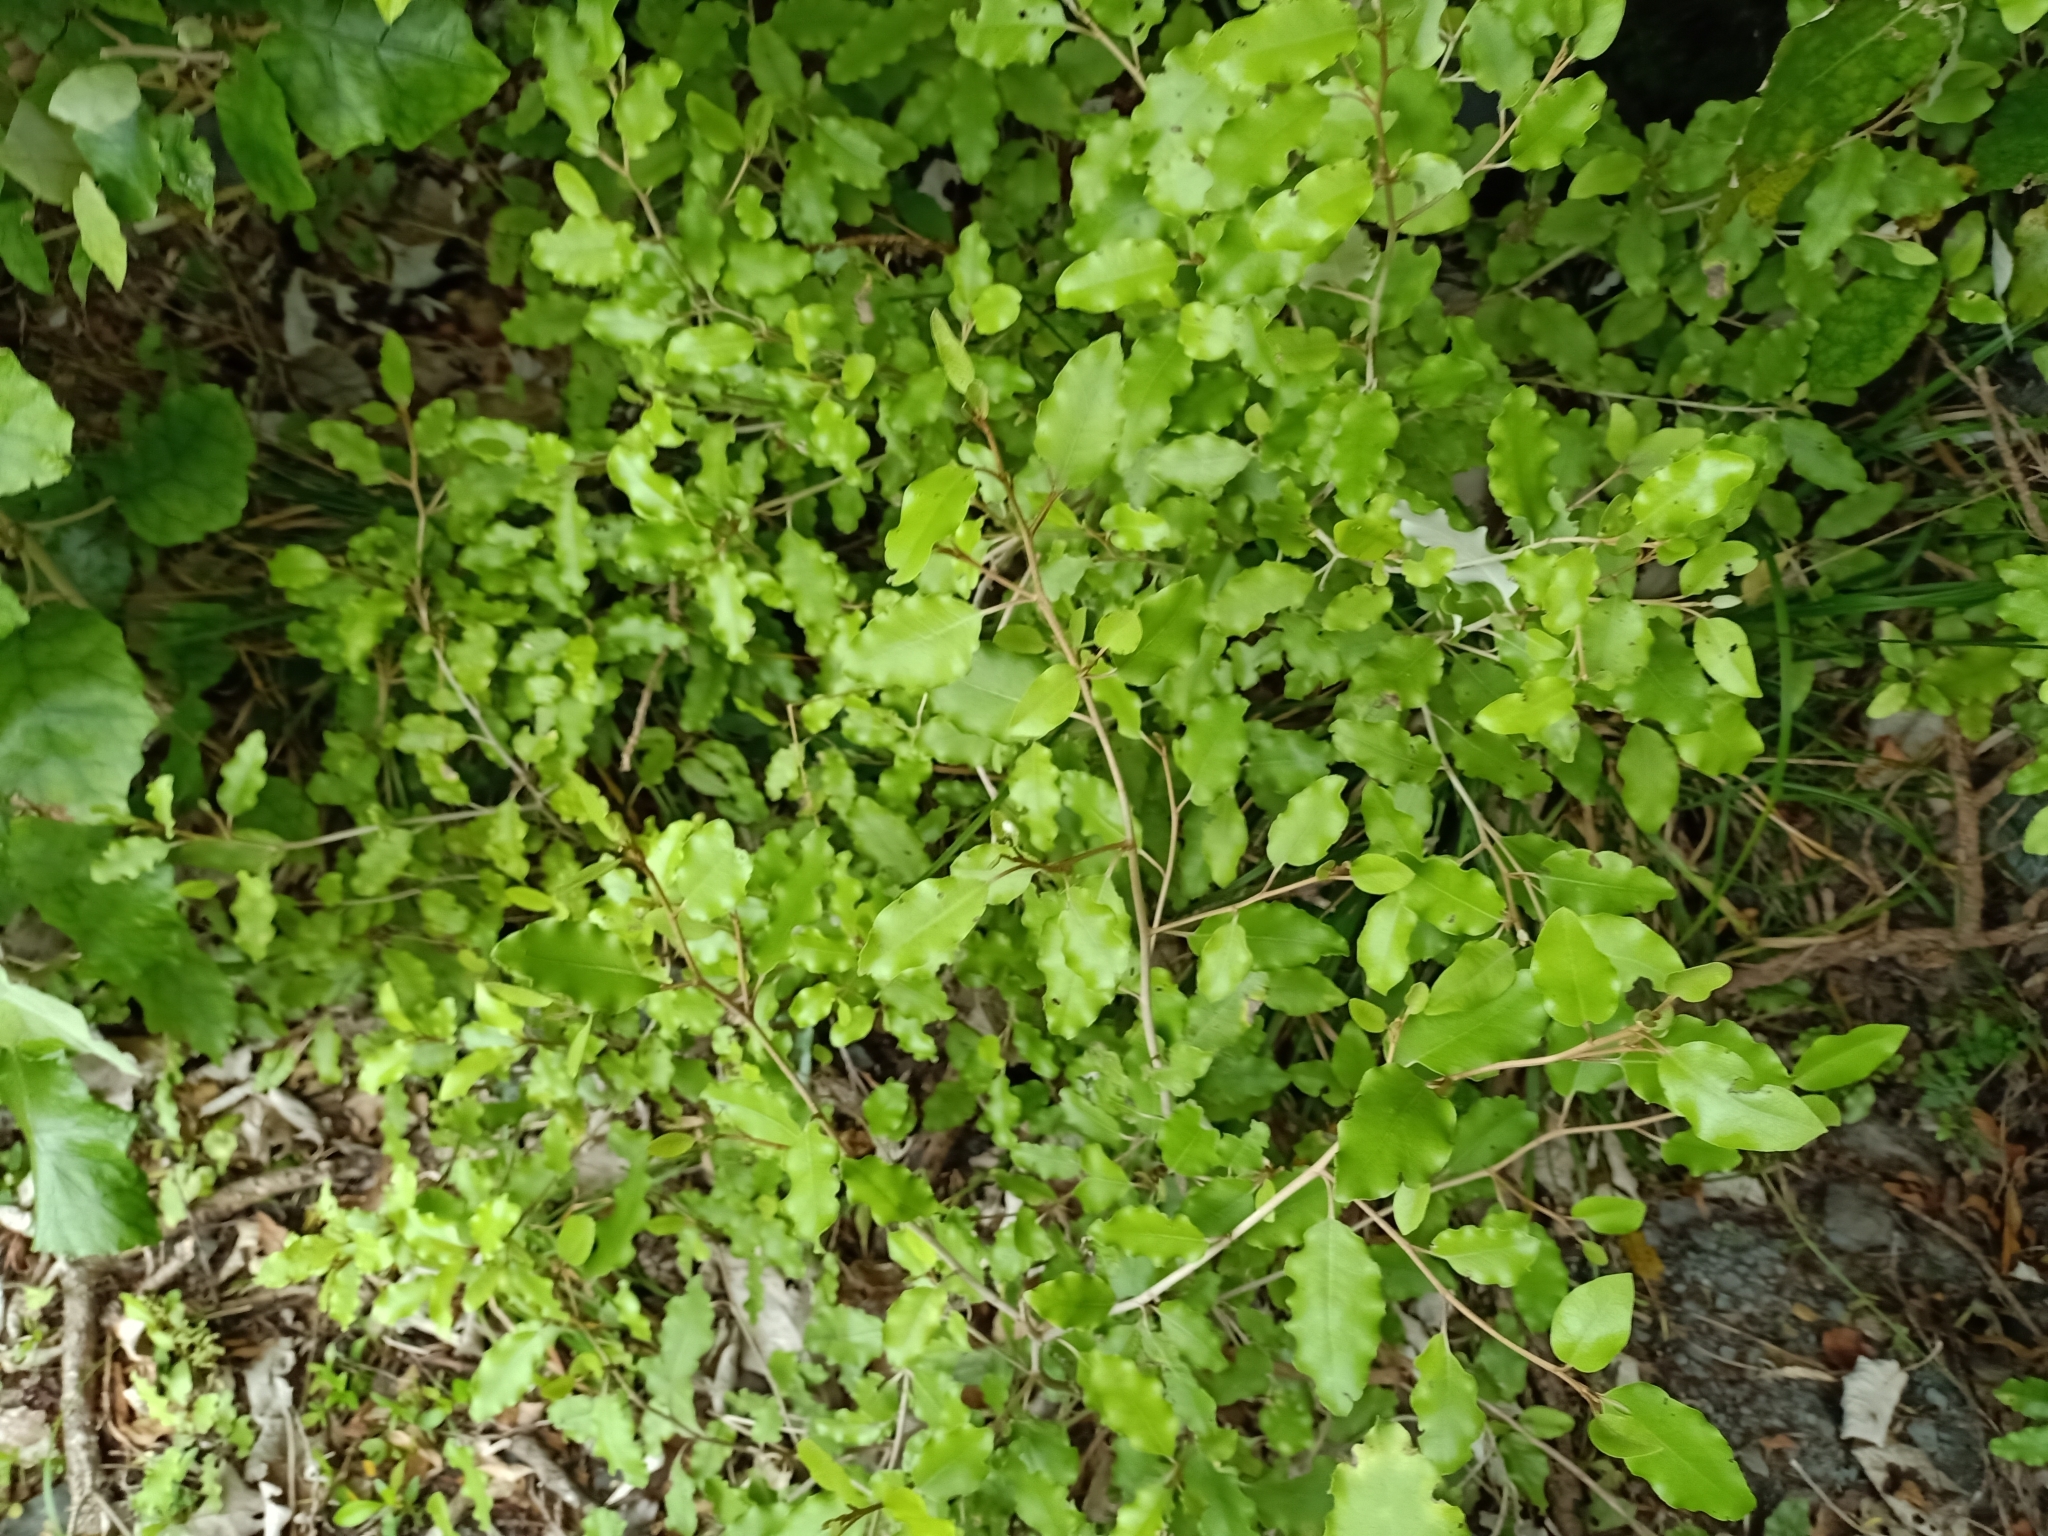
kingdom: Plantae
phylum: Tracheophyta
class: Magnoliopsida
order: Asterales
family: Asteraceae
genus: Olearia
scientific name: Olearia paniculata
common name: Akiraho
